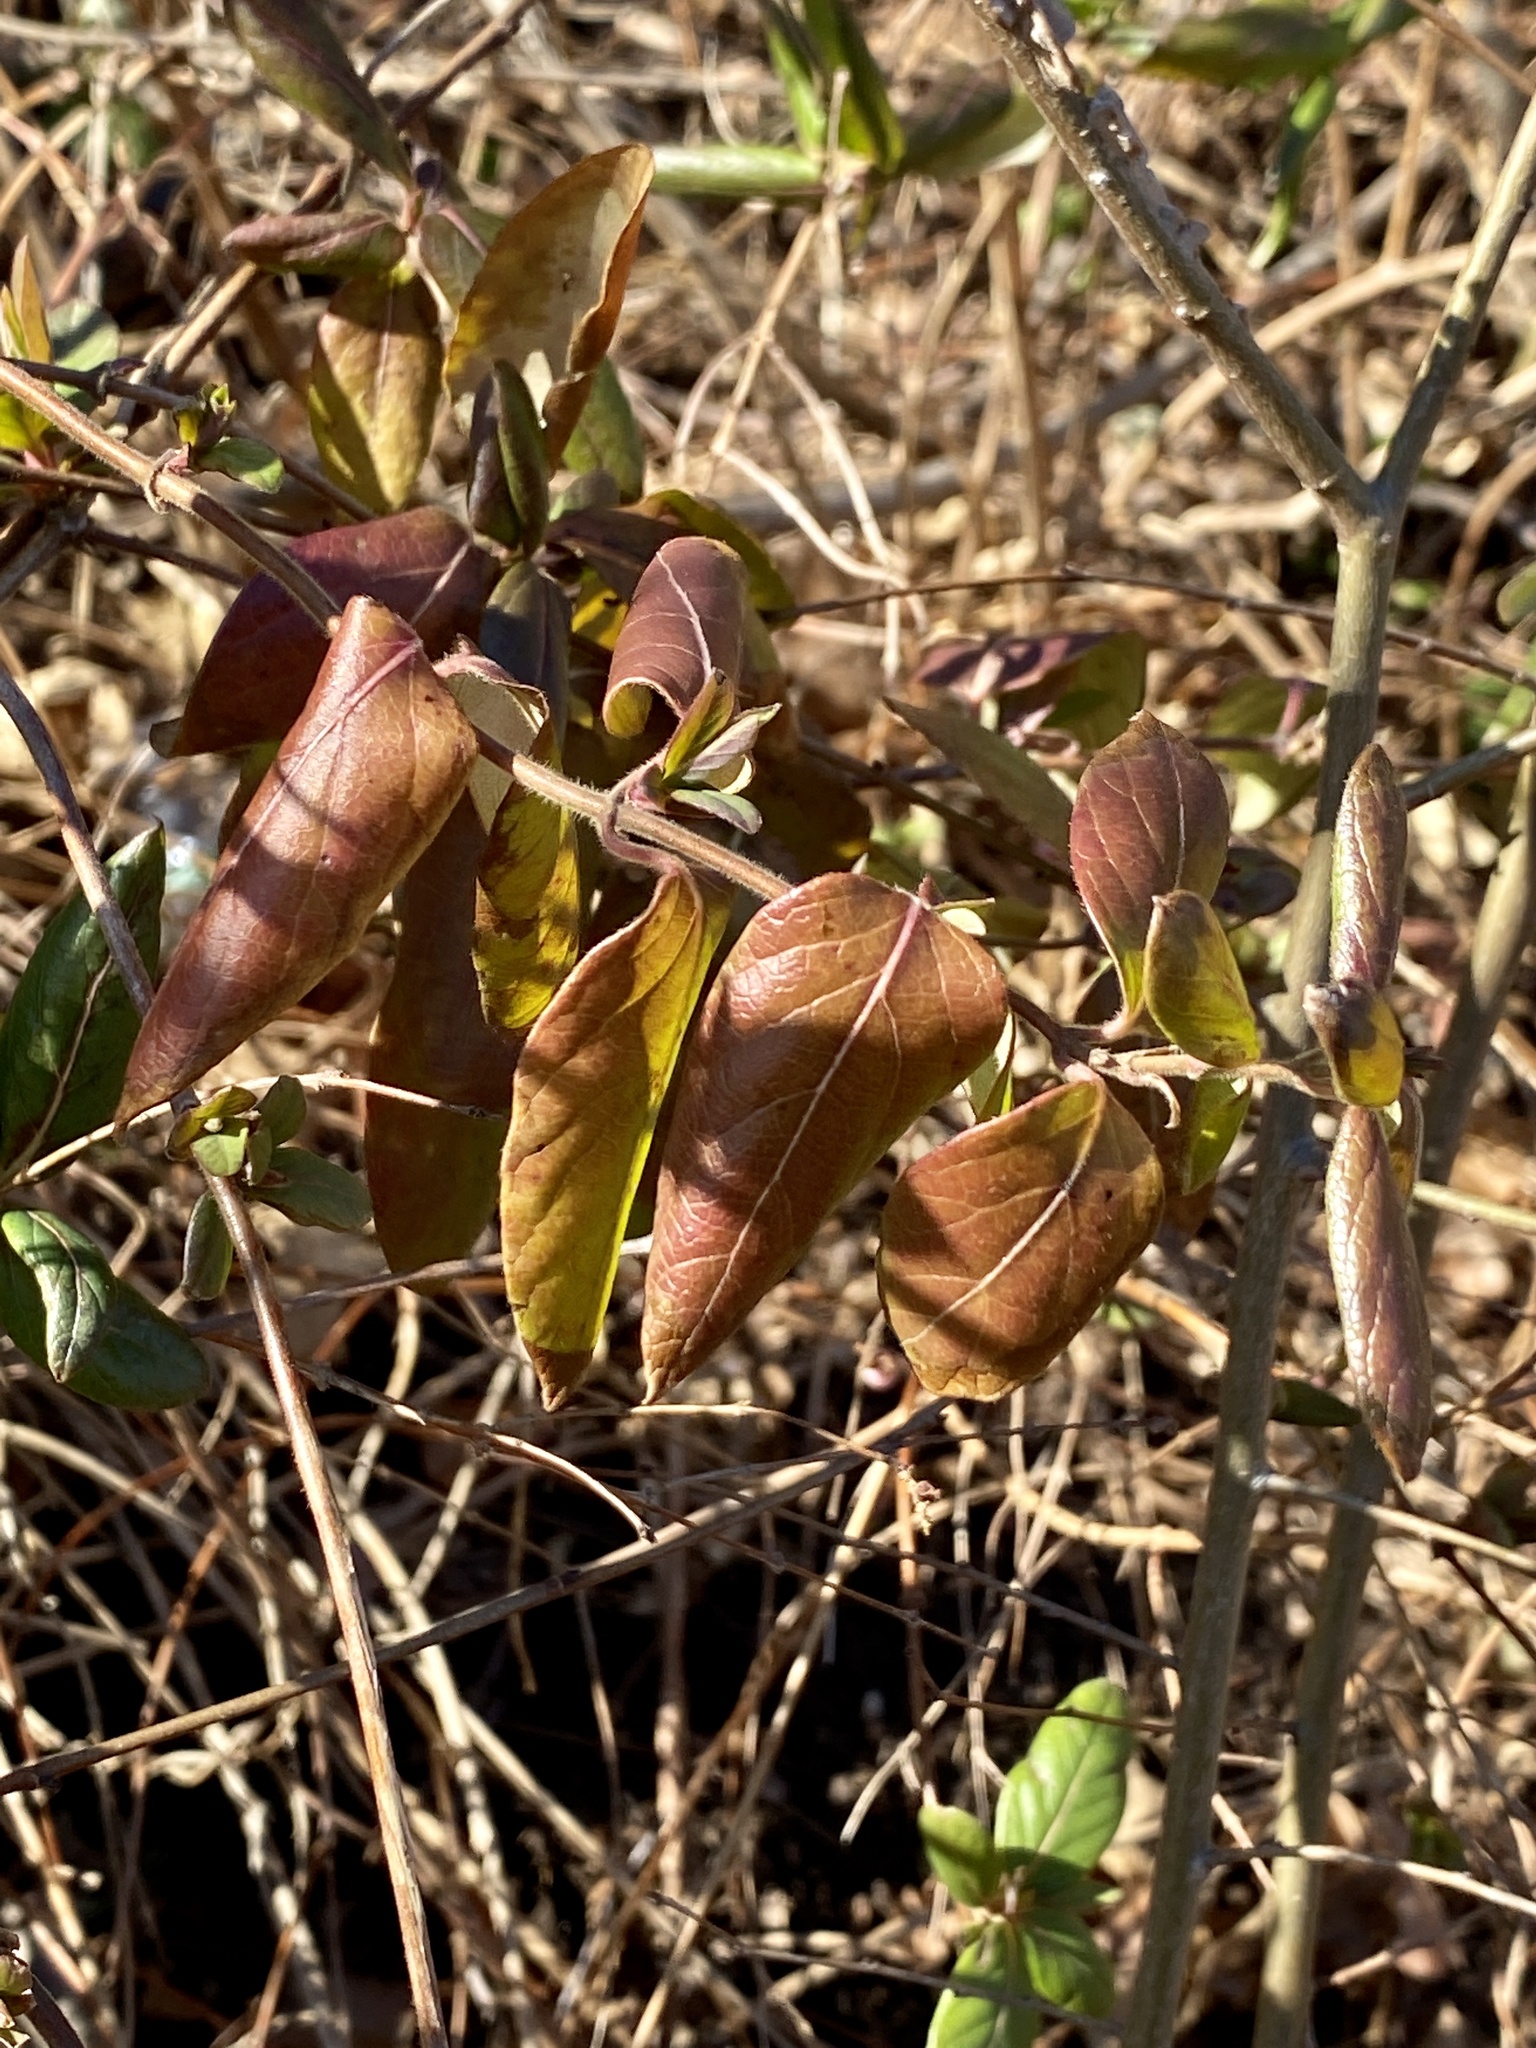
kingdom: Plantae
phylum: Tracheophyta
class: Magnoliopsida
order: Dipsacales
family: Caprifoliaceae
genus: Lonicera
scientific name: Lonicera japonica
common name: Japanese honeysuckle
